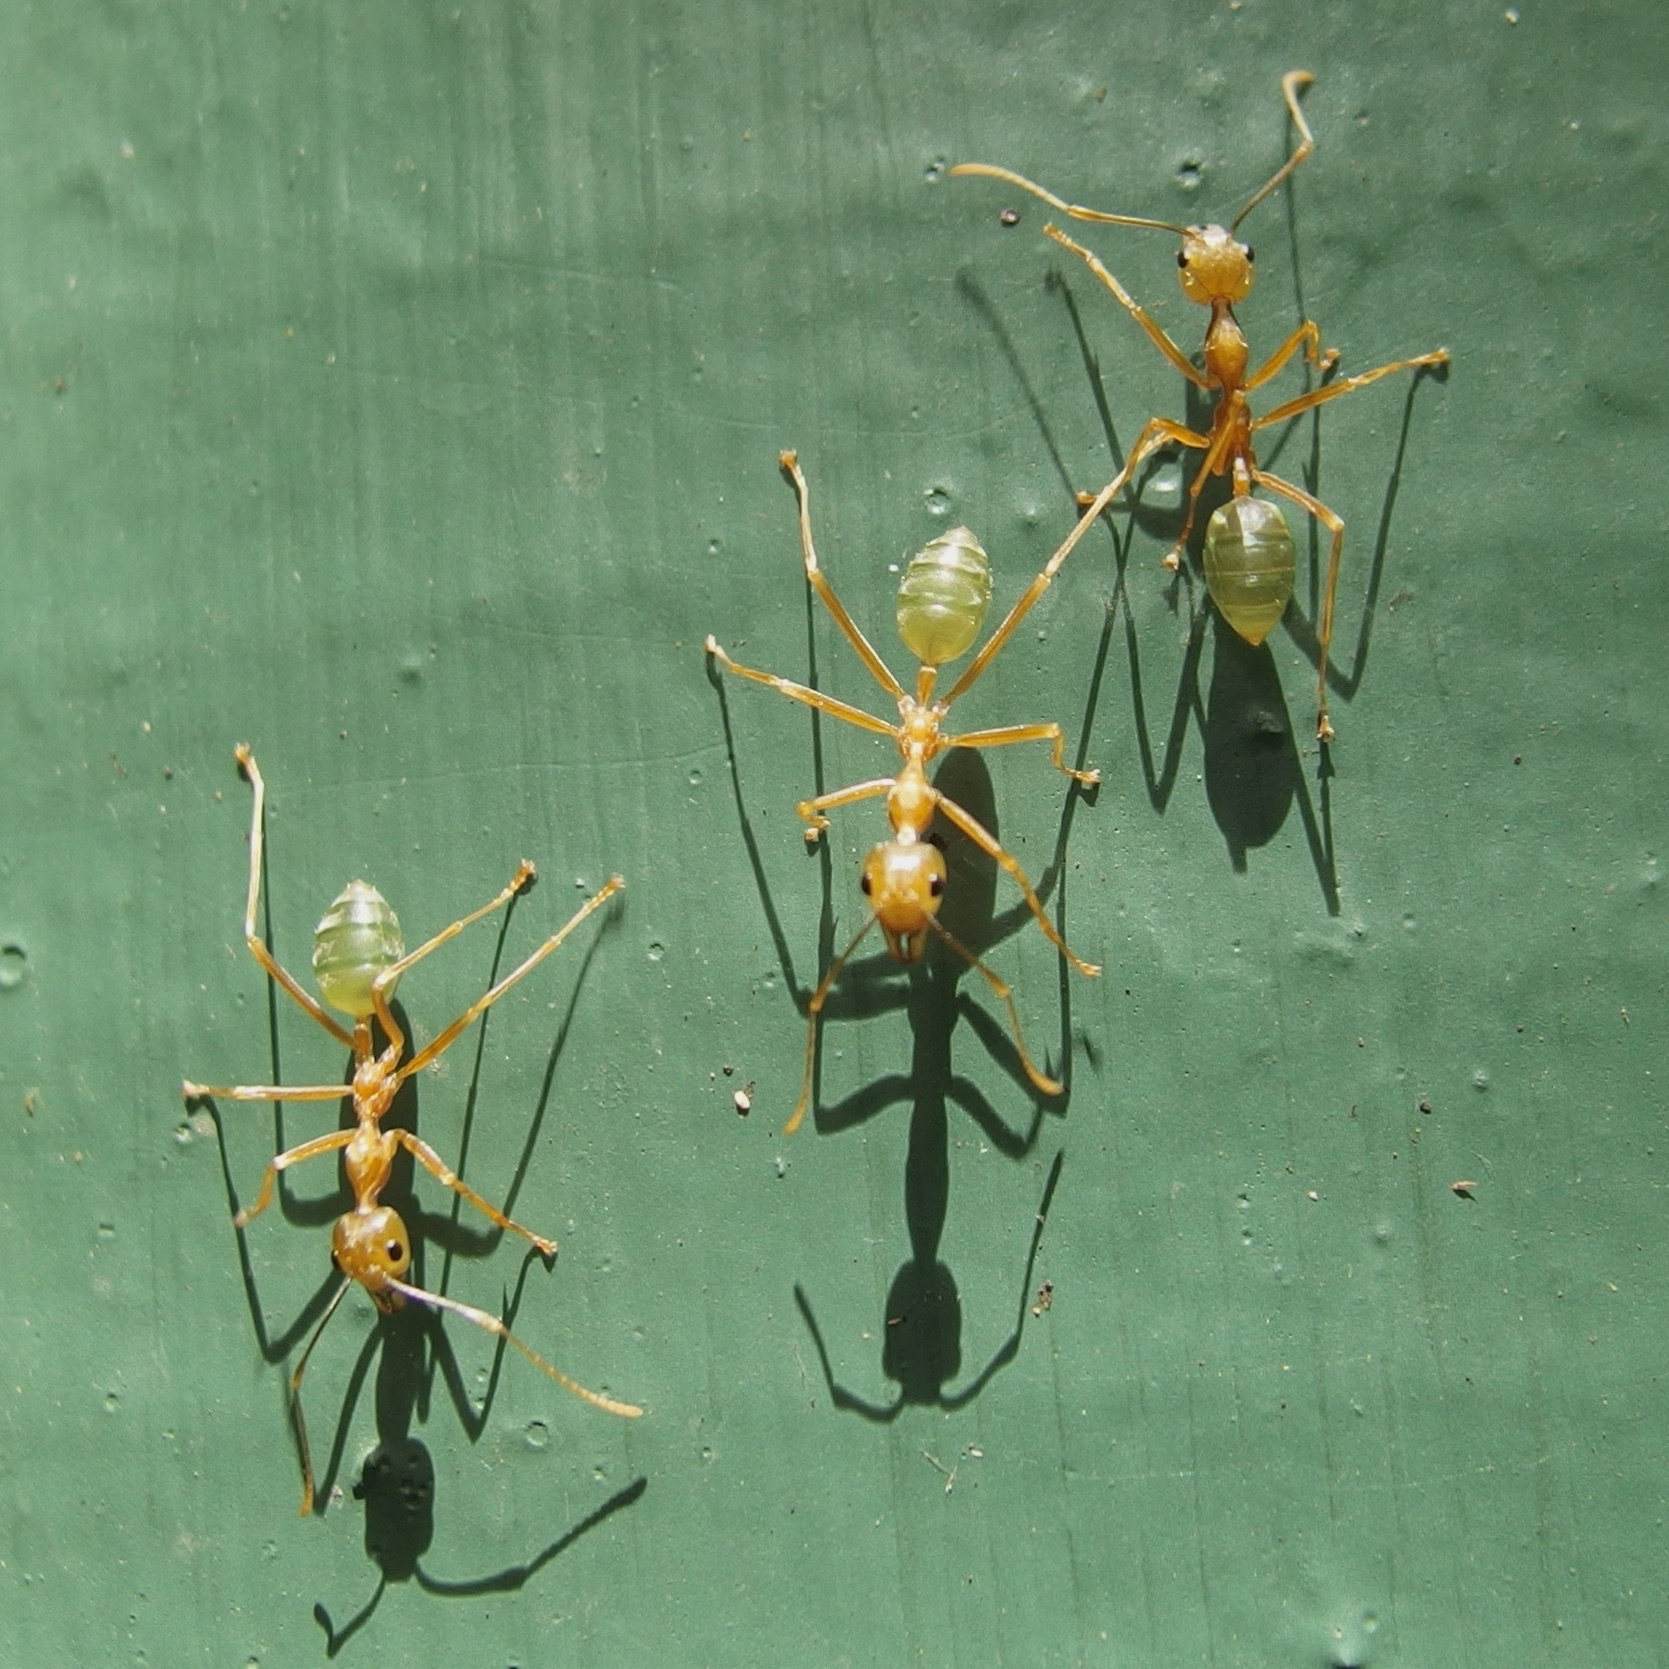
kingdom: Animalia
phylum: Arthropoda
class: Insecta
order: Hymenoptera
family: Formicidae
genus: Oecophylla
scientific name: Oecophylla smaragdina
